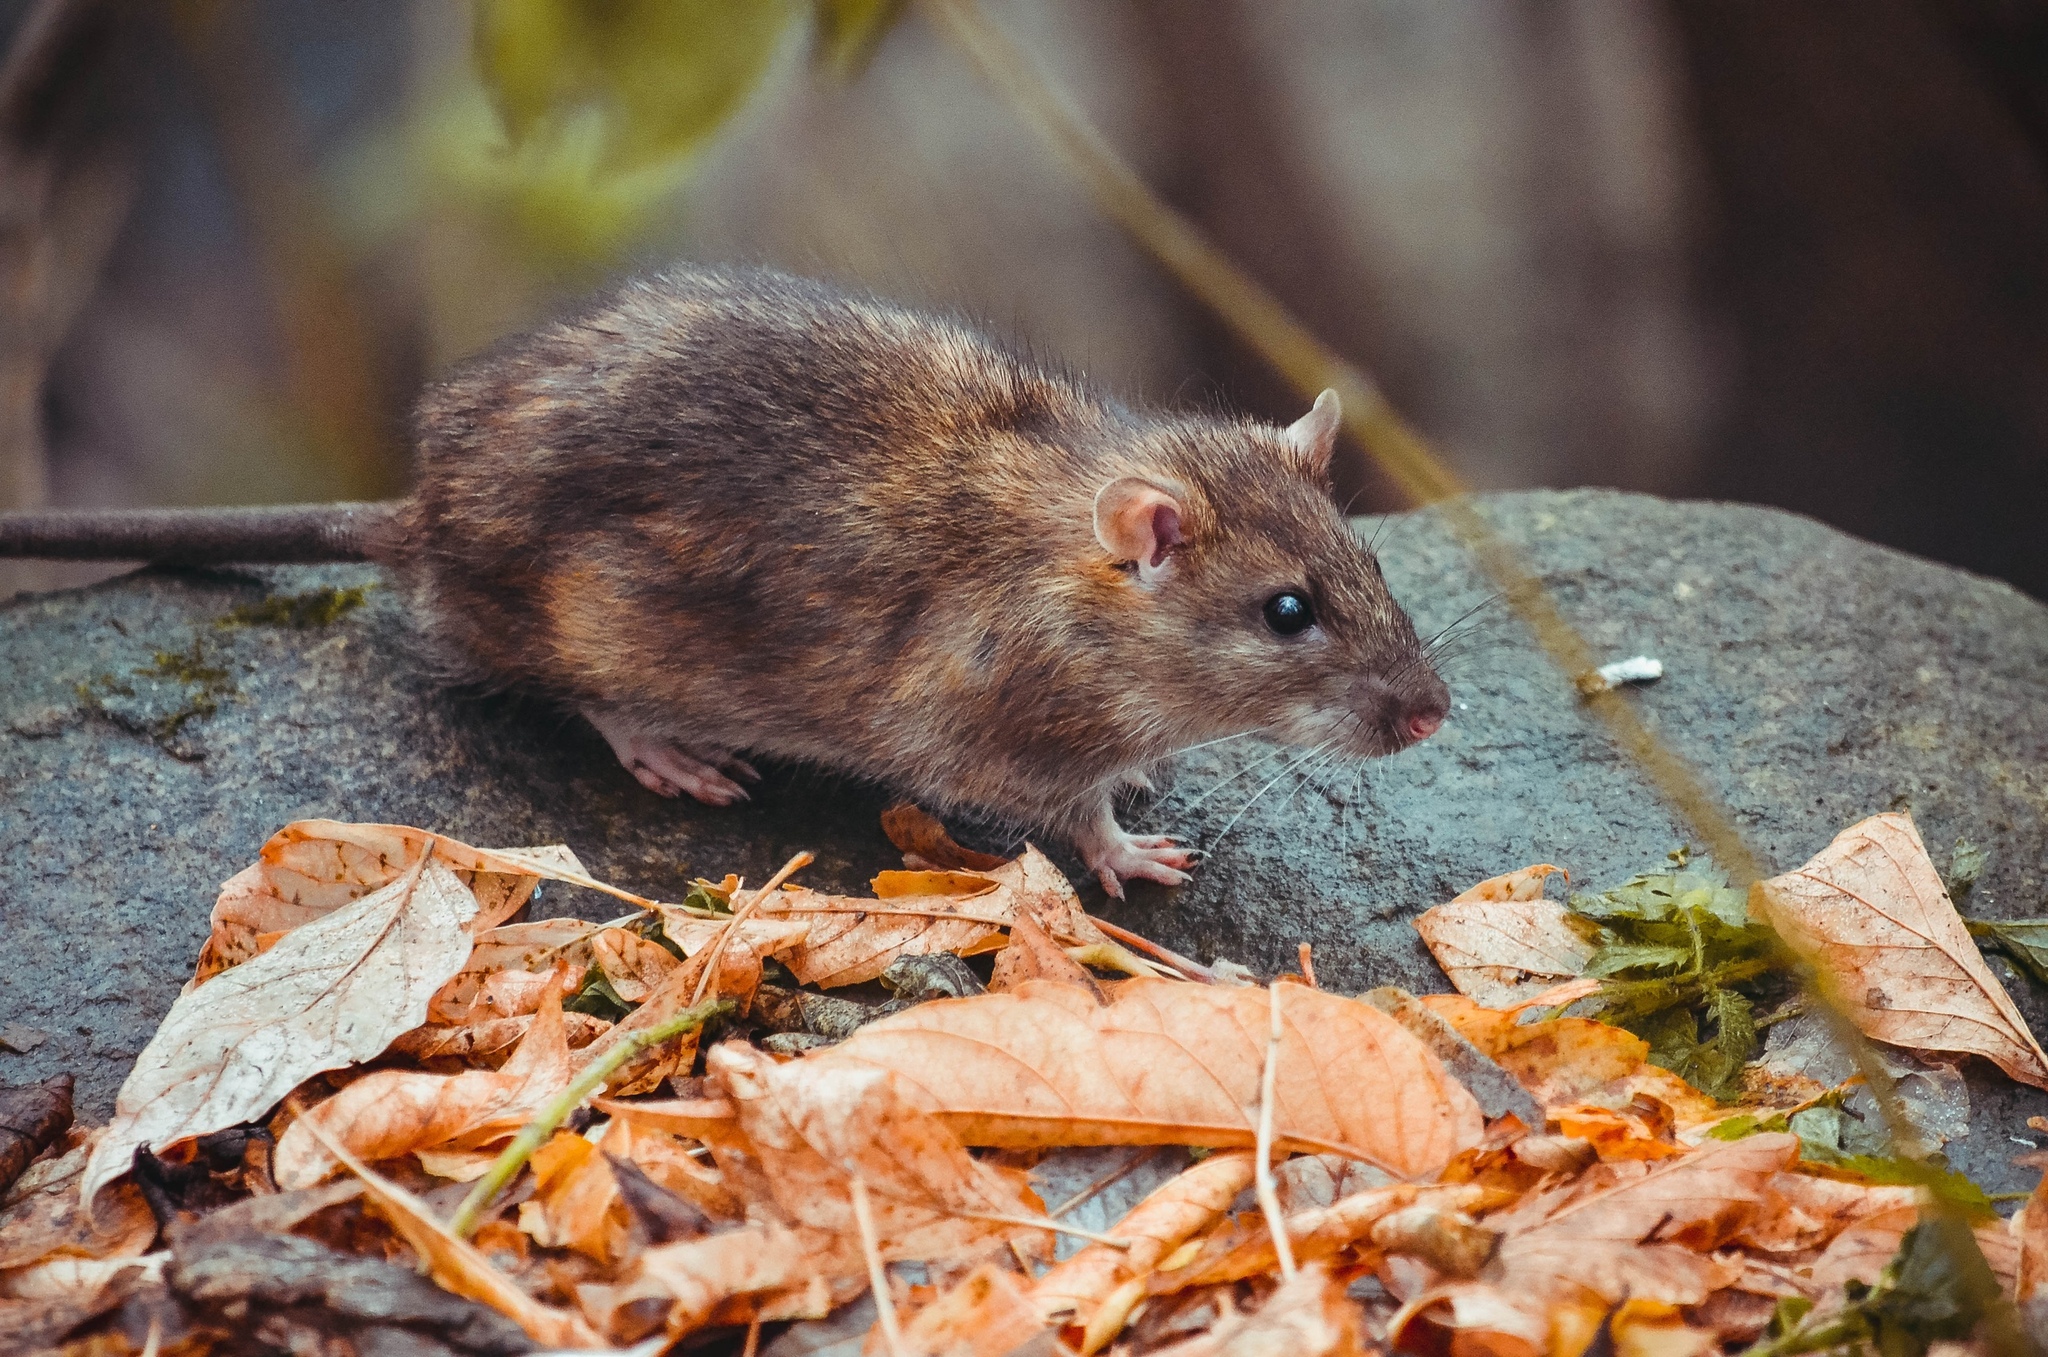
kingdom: Animalia
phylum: Chordata
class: Mammalia
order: Rodentia
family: Muridae
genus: Rattus
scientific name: Rattus norvegicus
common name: Brown rat
